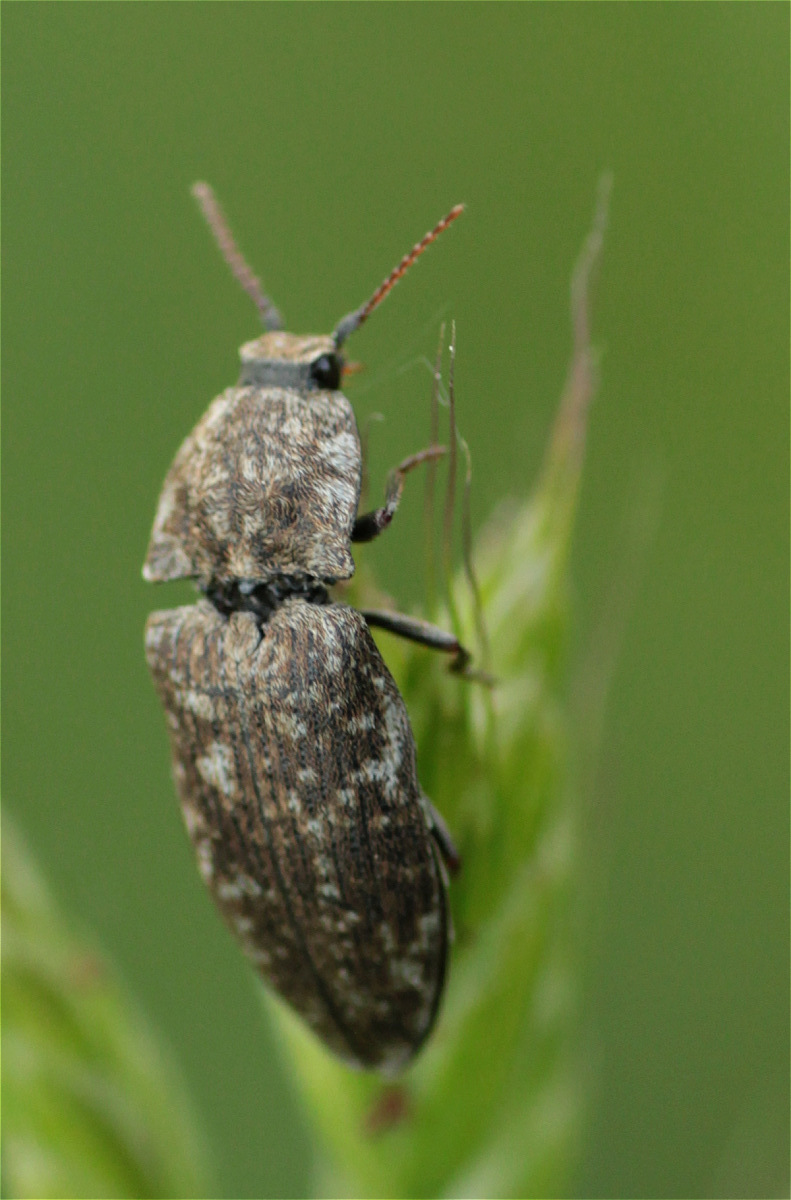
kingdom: Animalia
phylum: Arthropoda
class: Insecta
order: Coleoptera
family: Elateridae
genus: Agrypnus
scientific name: Agrypnus murinus
